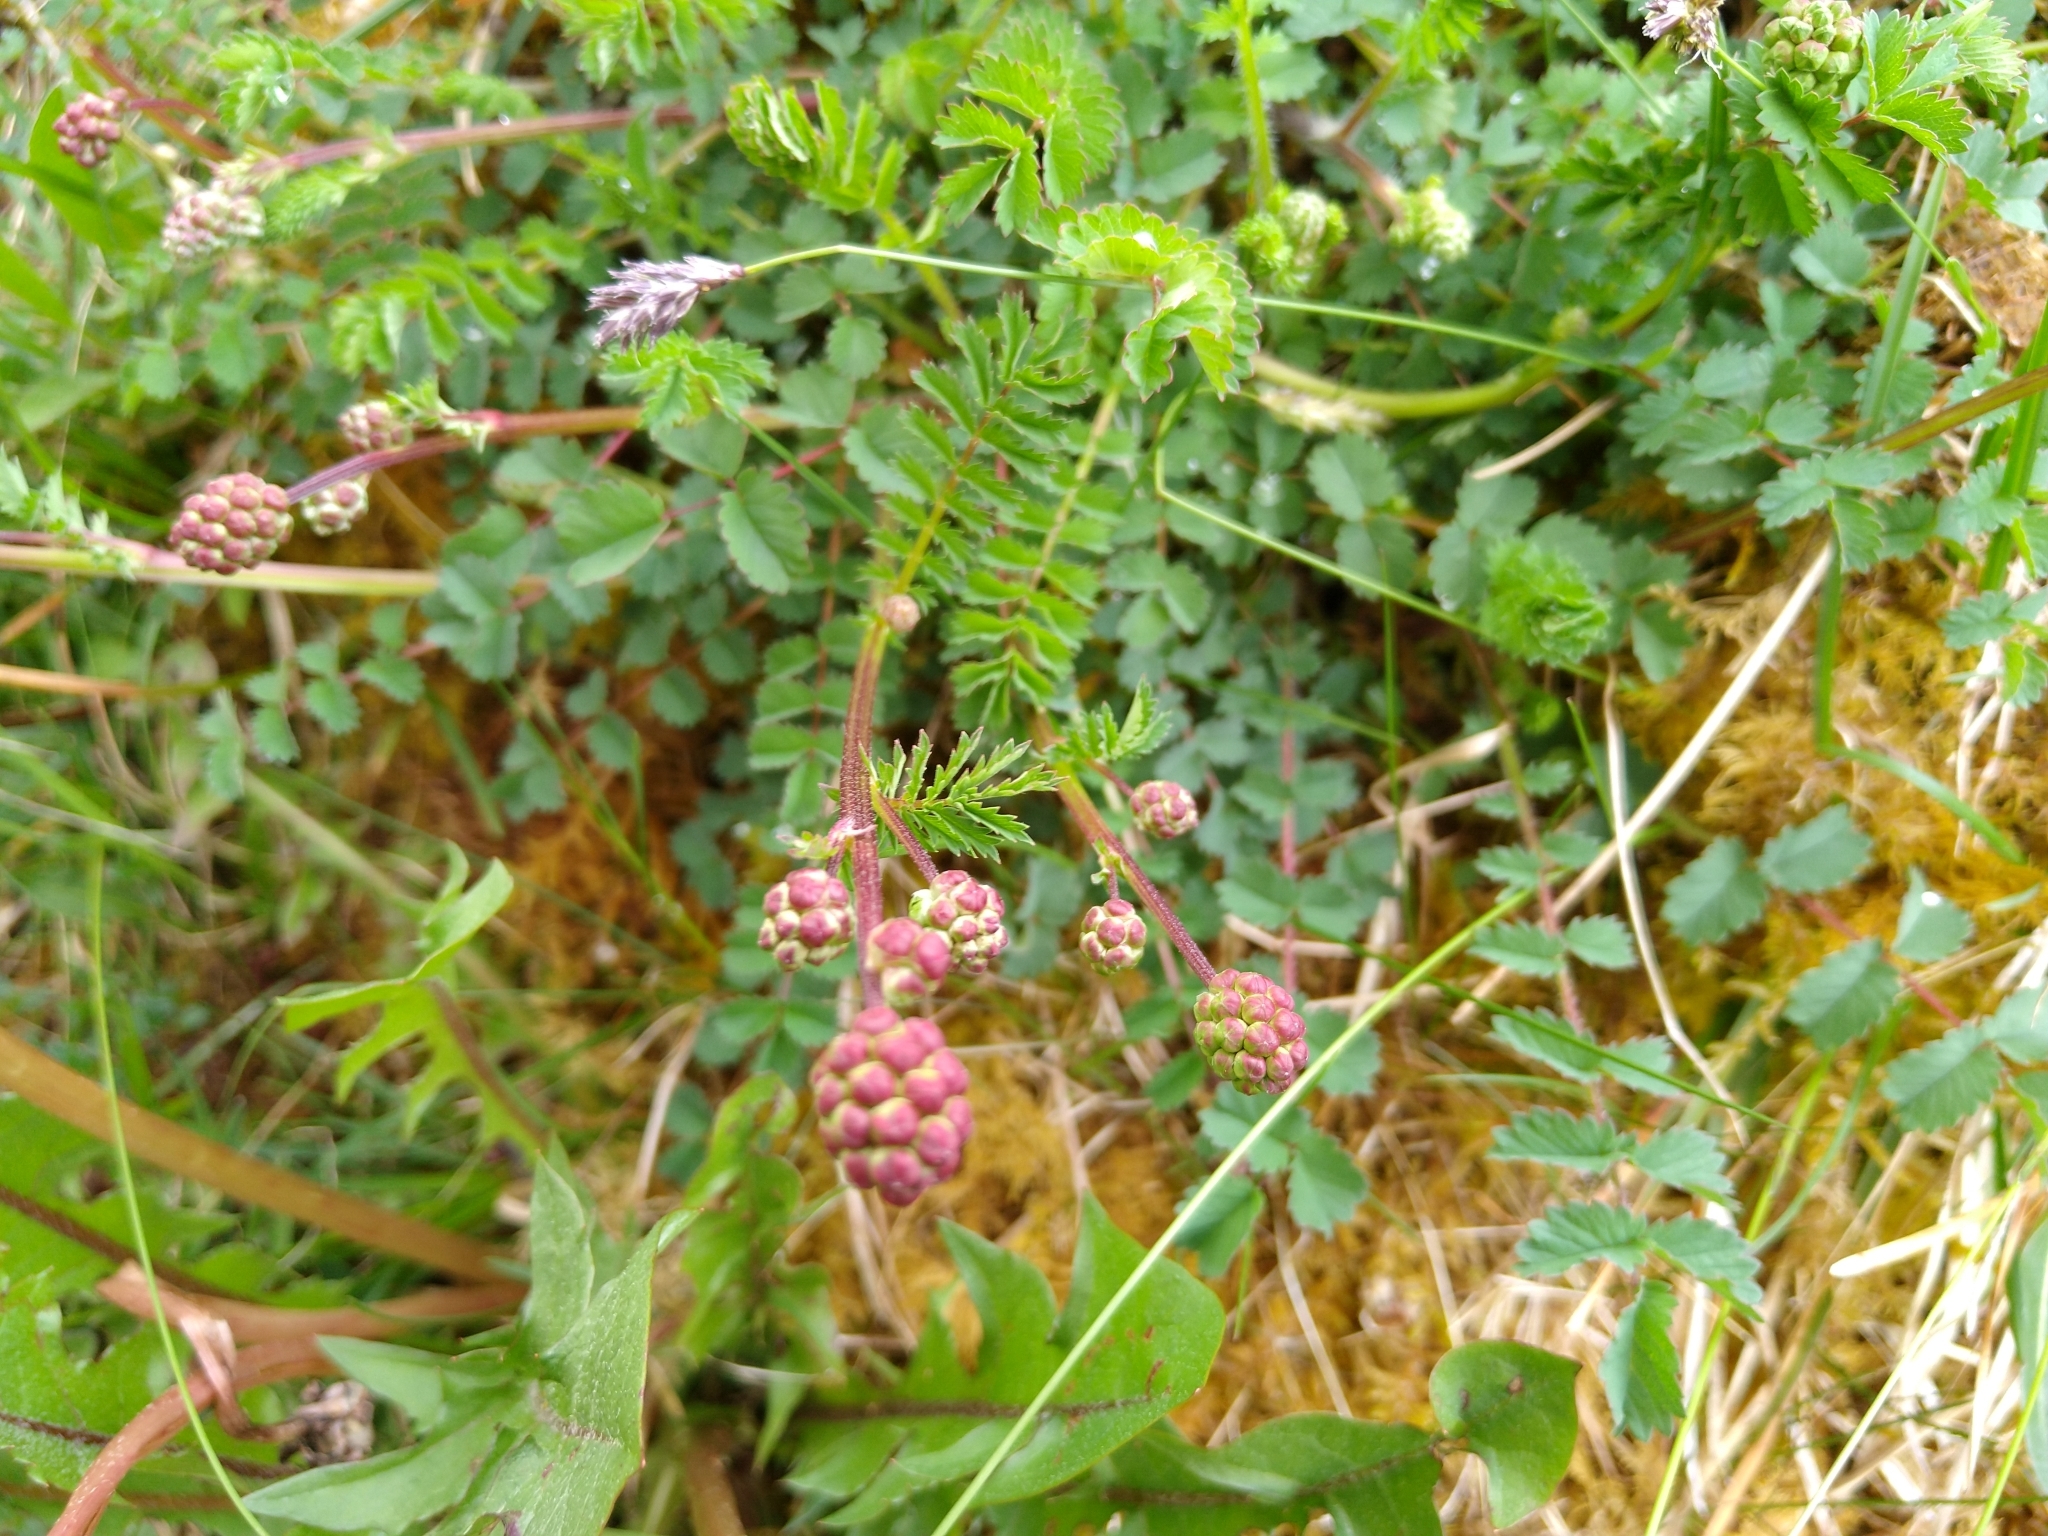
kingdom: Plantae
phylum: Tracheophyta
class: Magnoliopsida
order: Rosales
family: Rosaceae
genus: Poterium
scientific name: Poterium sanguisorba
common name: Salad burnet
